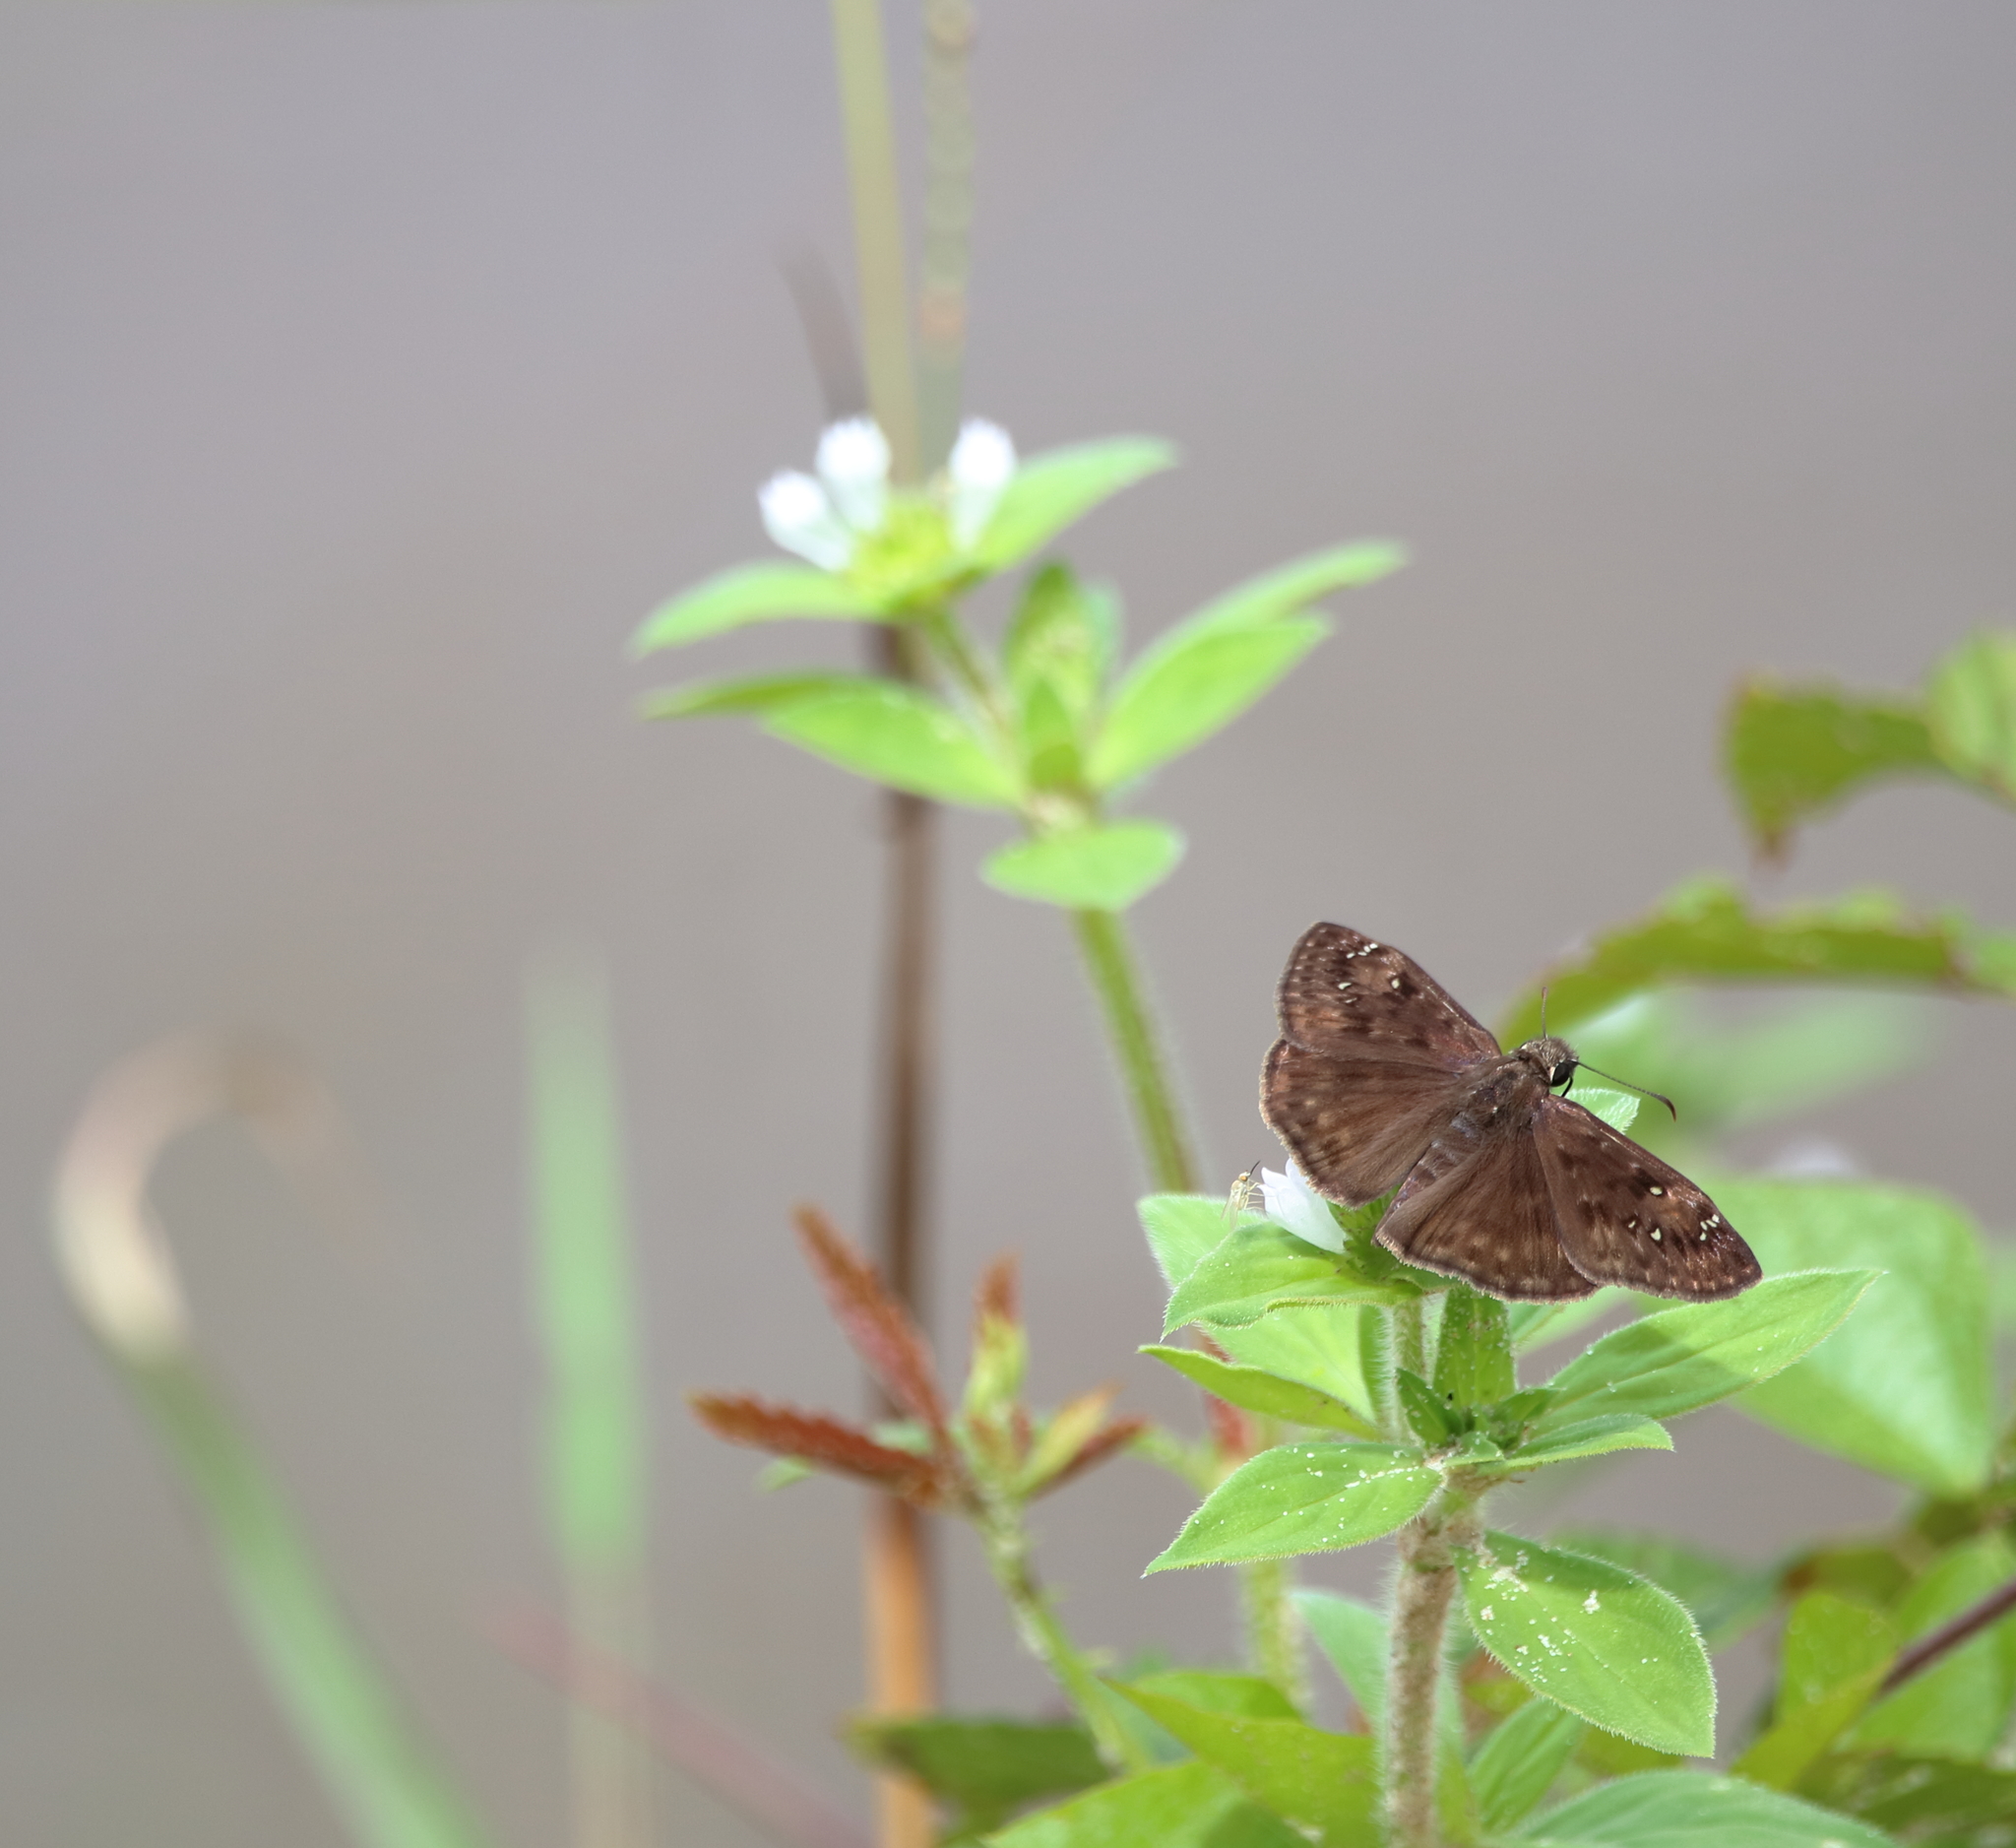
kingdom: Animalia
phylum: Arthropoda
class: Insecta
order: Lepidoptera
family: Hesperiidae
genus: Erynnis
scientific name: Erynnis horatius
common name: Horace's duskywing
